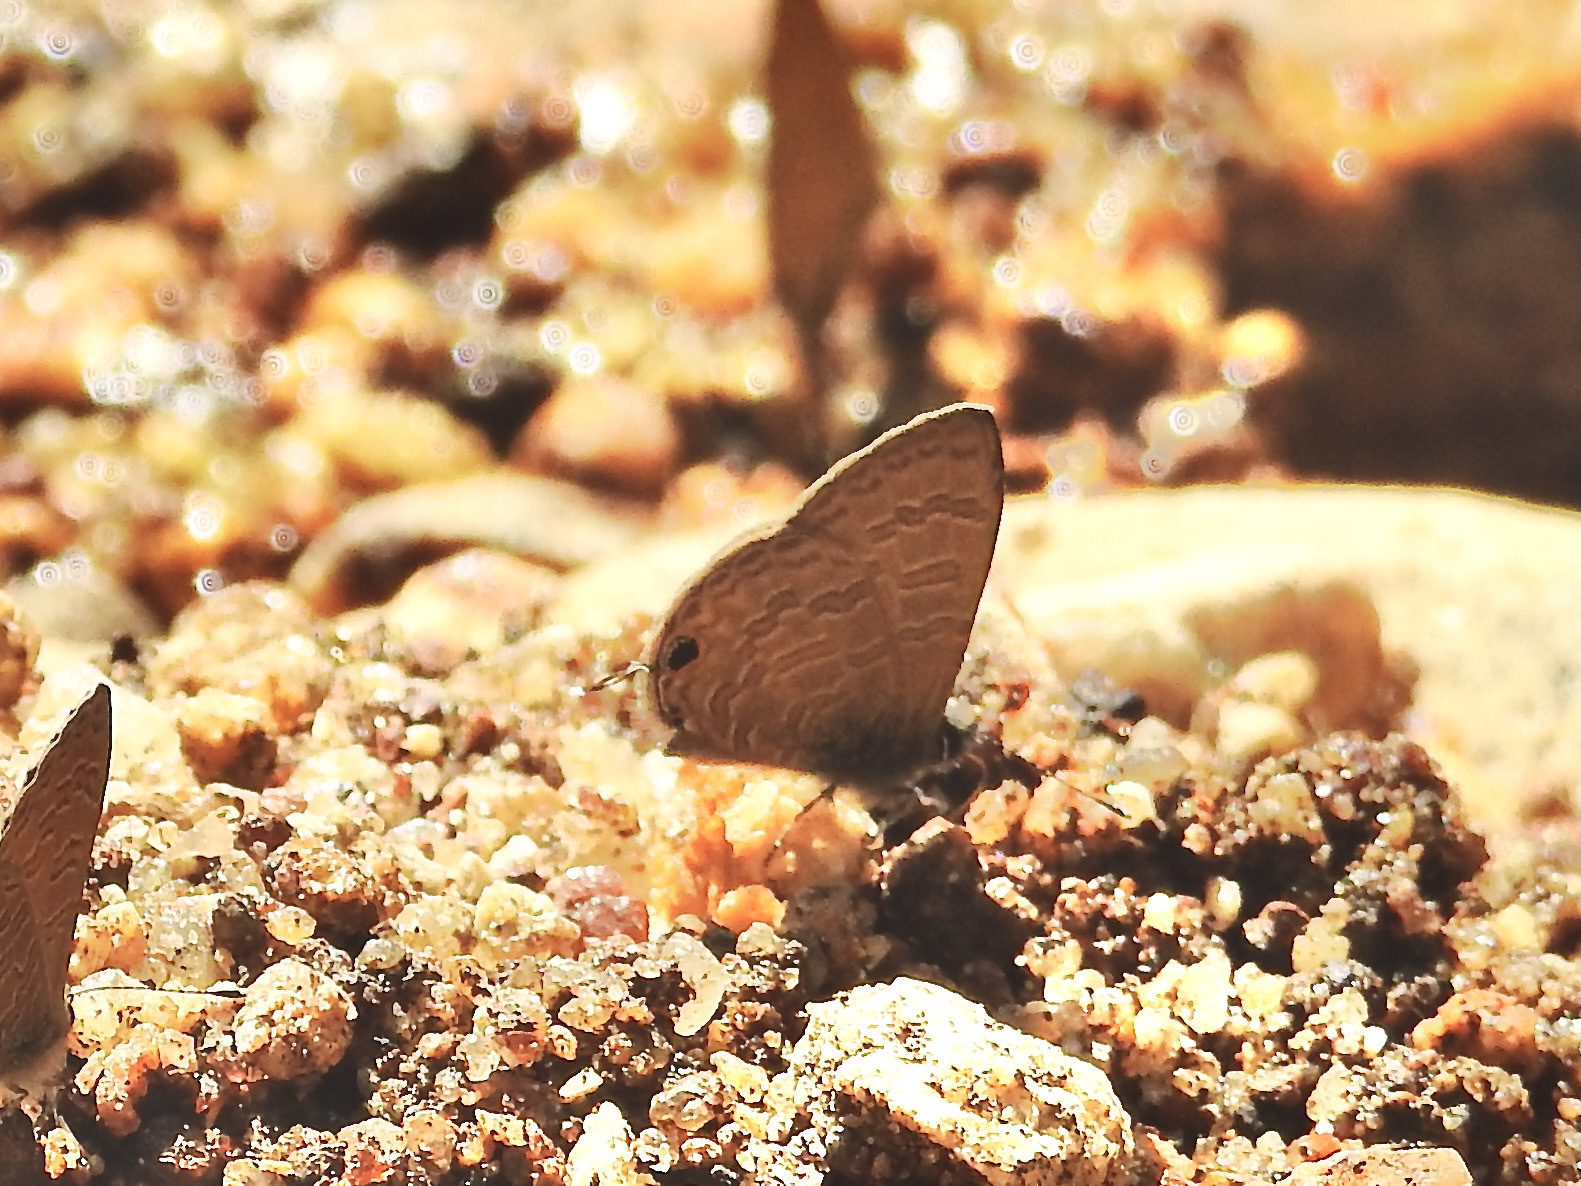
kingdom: Animalia
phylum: Arthropoda
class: Insecta
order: Lepidoptera
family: Lycaenidae
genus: Prosotas
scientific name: Prosotas nora
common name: Common line blue
